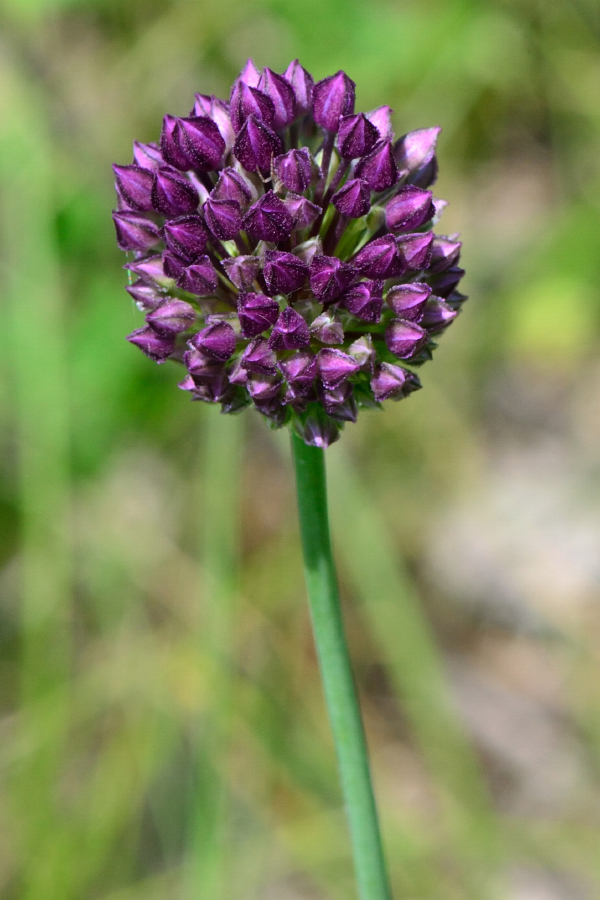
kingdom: Plantae
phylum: Tracheophyta
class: Liliopsida
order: Asparagales
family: Amaryllidaceae
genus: Allium
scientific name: Allium rotundum
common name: Sand leek
